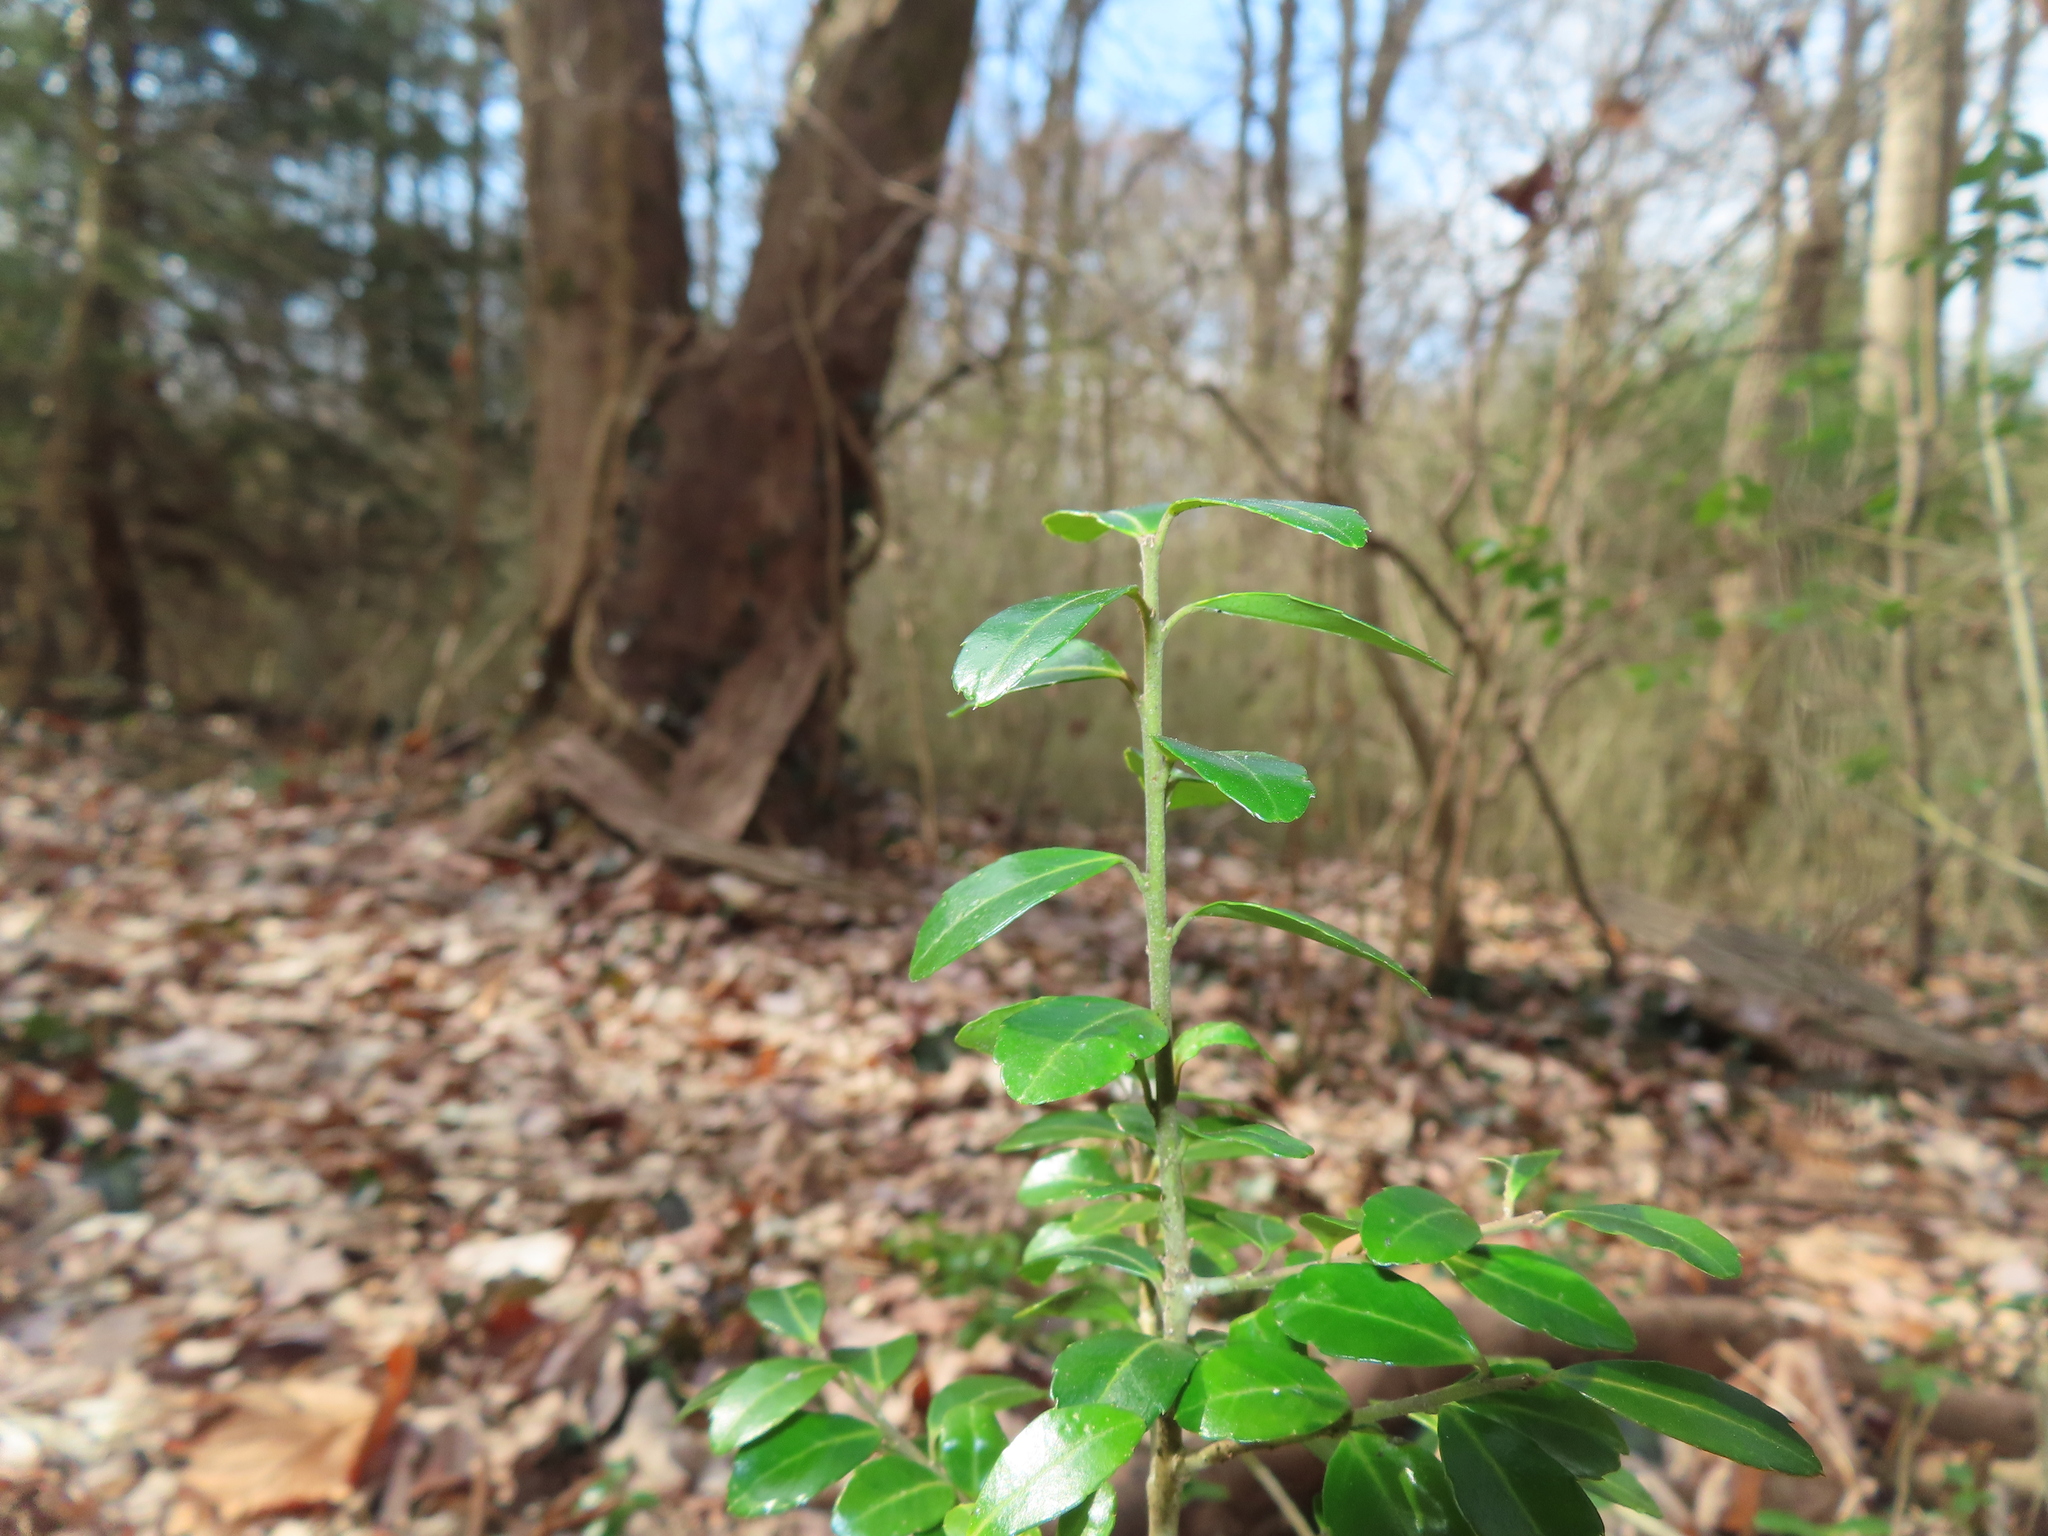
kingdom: Plantae
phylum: Tracheophyta
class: Magnoliopsida
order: Aquifoliales
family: Aquifoliaceae
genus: Ilex
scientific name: Ilex crenata
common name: Japanese holly
